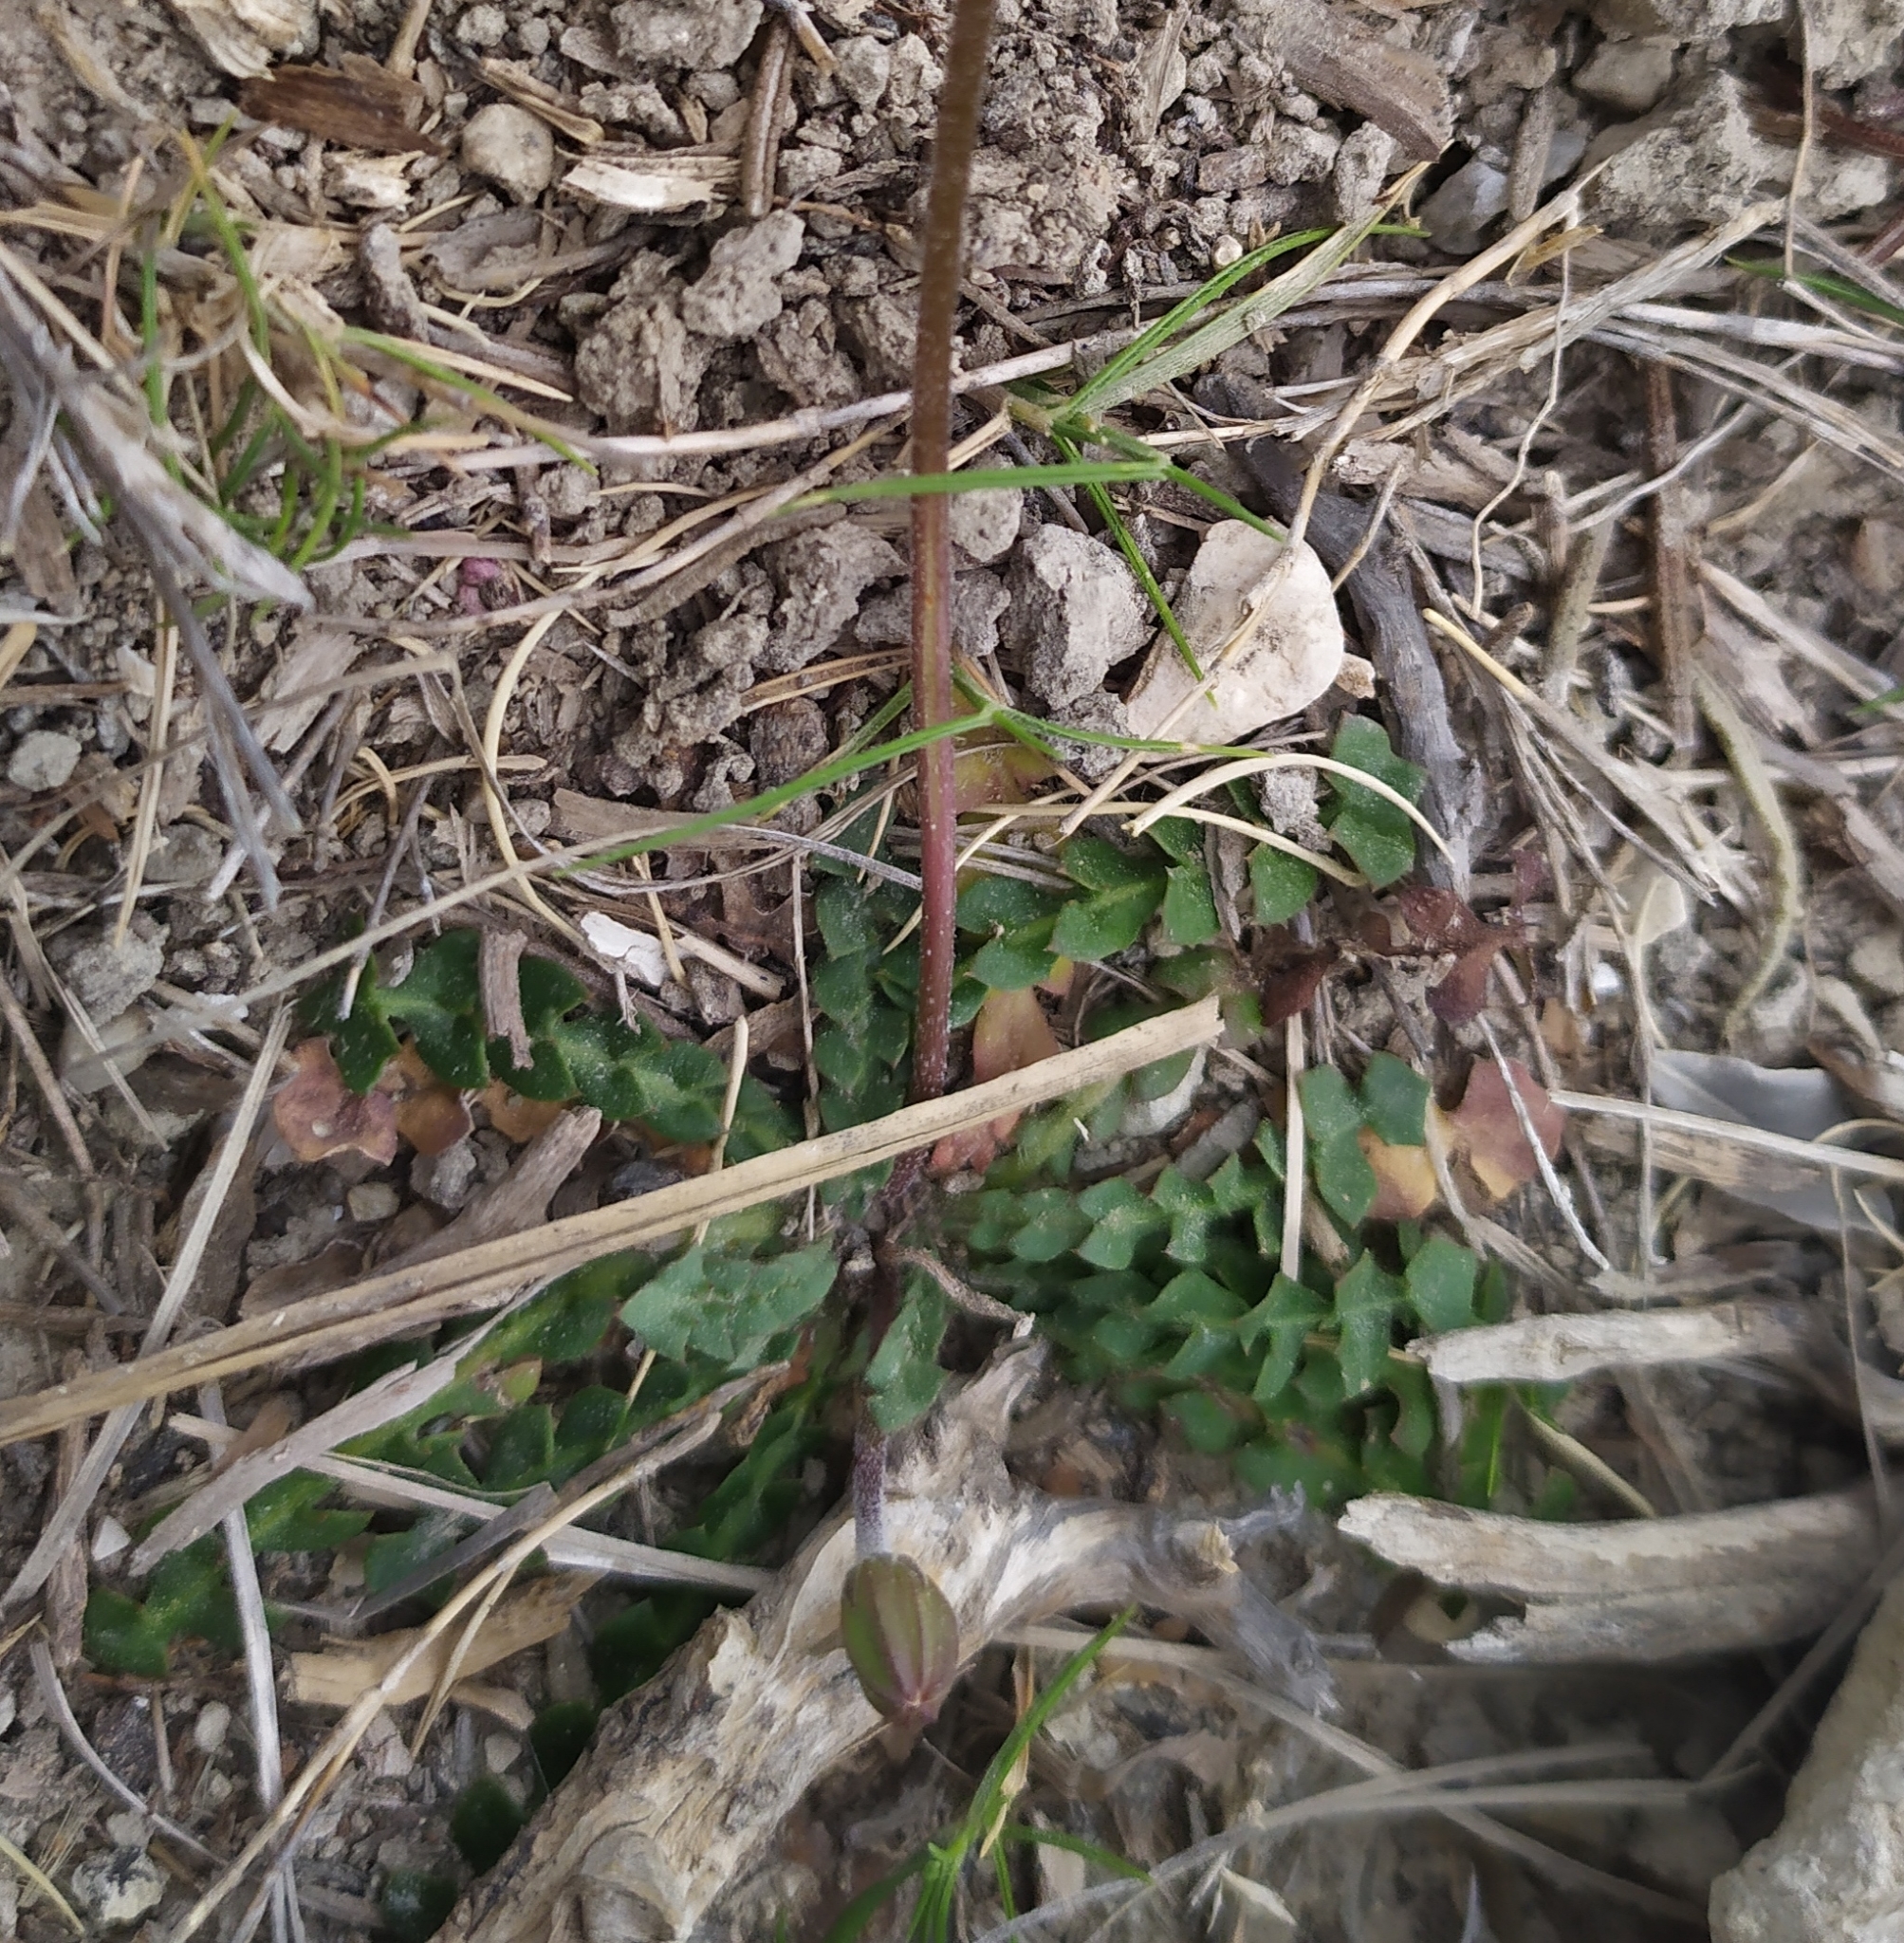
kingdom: Plantae
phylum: Tracheophyta
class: Magnoliopsida
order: Asterales
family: Asteraceae
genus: Hyoseris
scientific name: Hyoseris radiata
